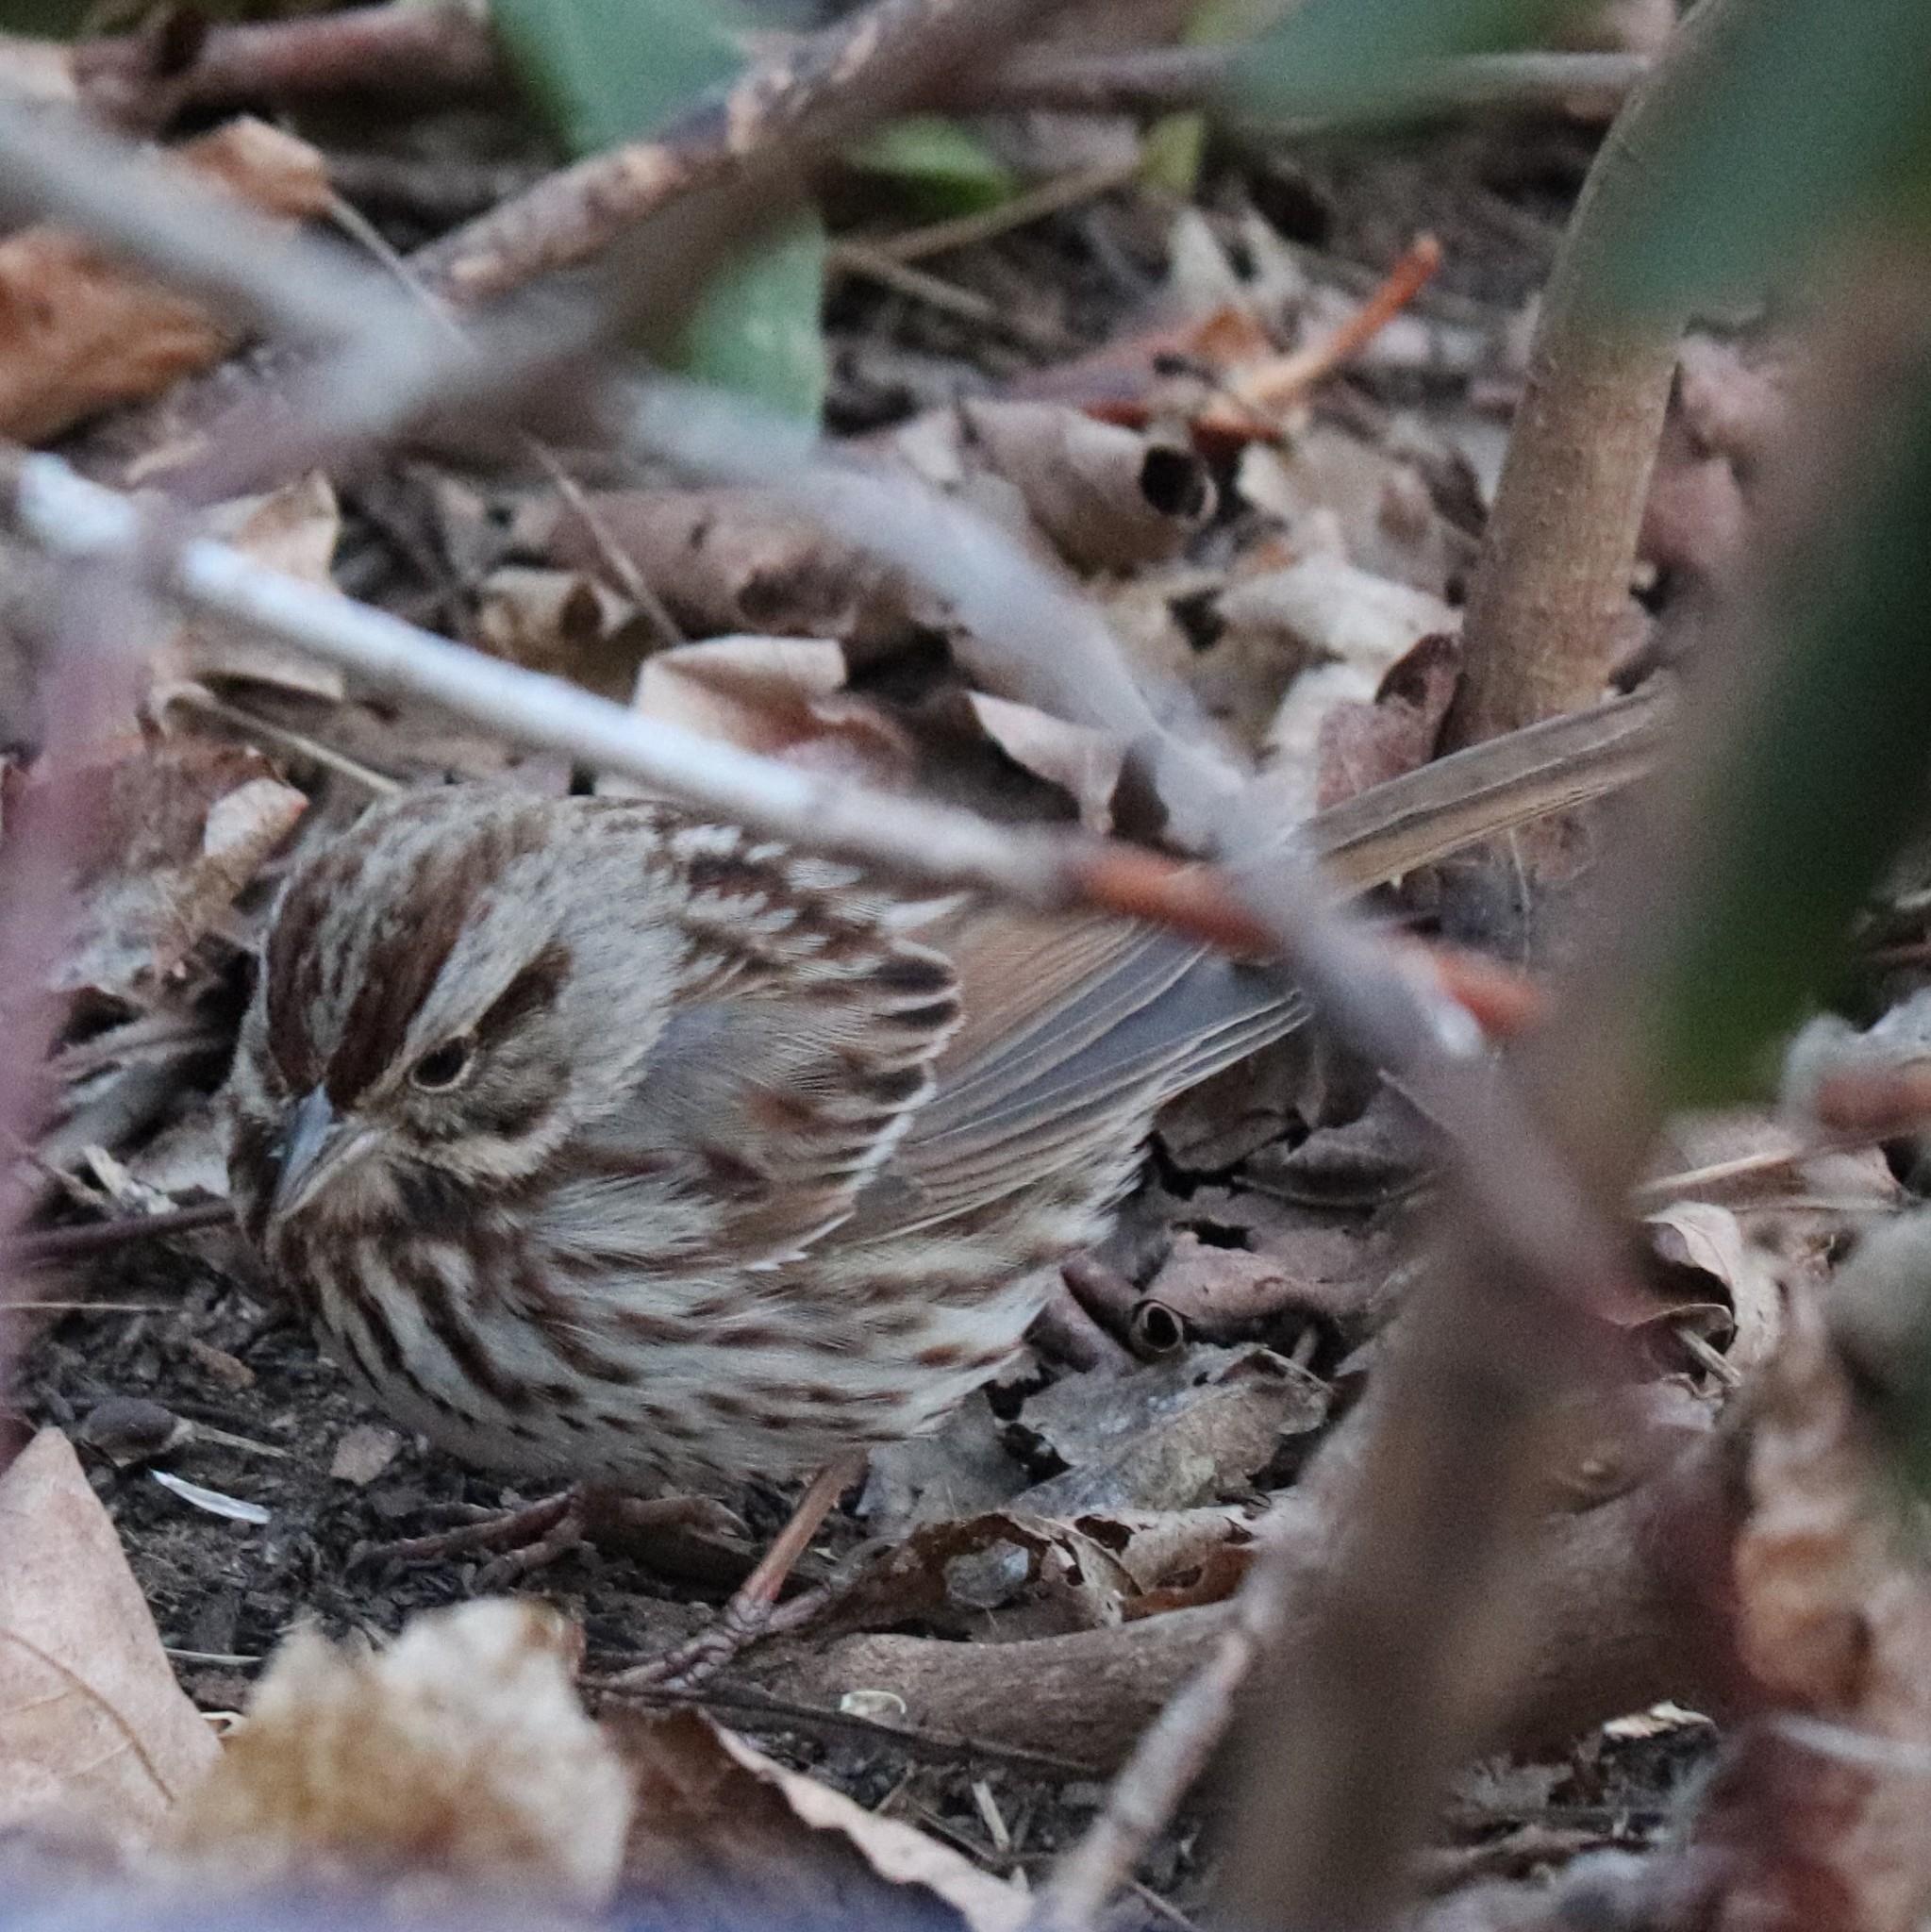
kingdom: Animalia
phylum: Chordata
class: Aves
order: Passeriformes
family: Passerellidae
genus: Melospiza
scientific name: Melospiza melodia
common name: Song sparrow
